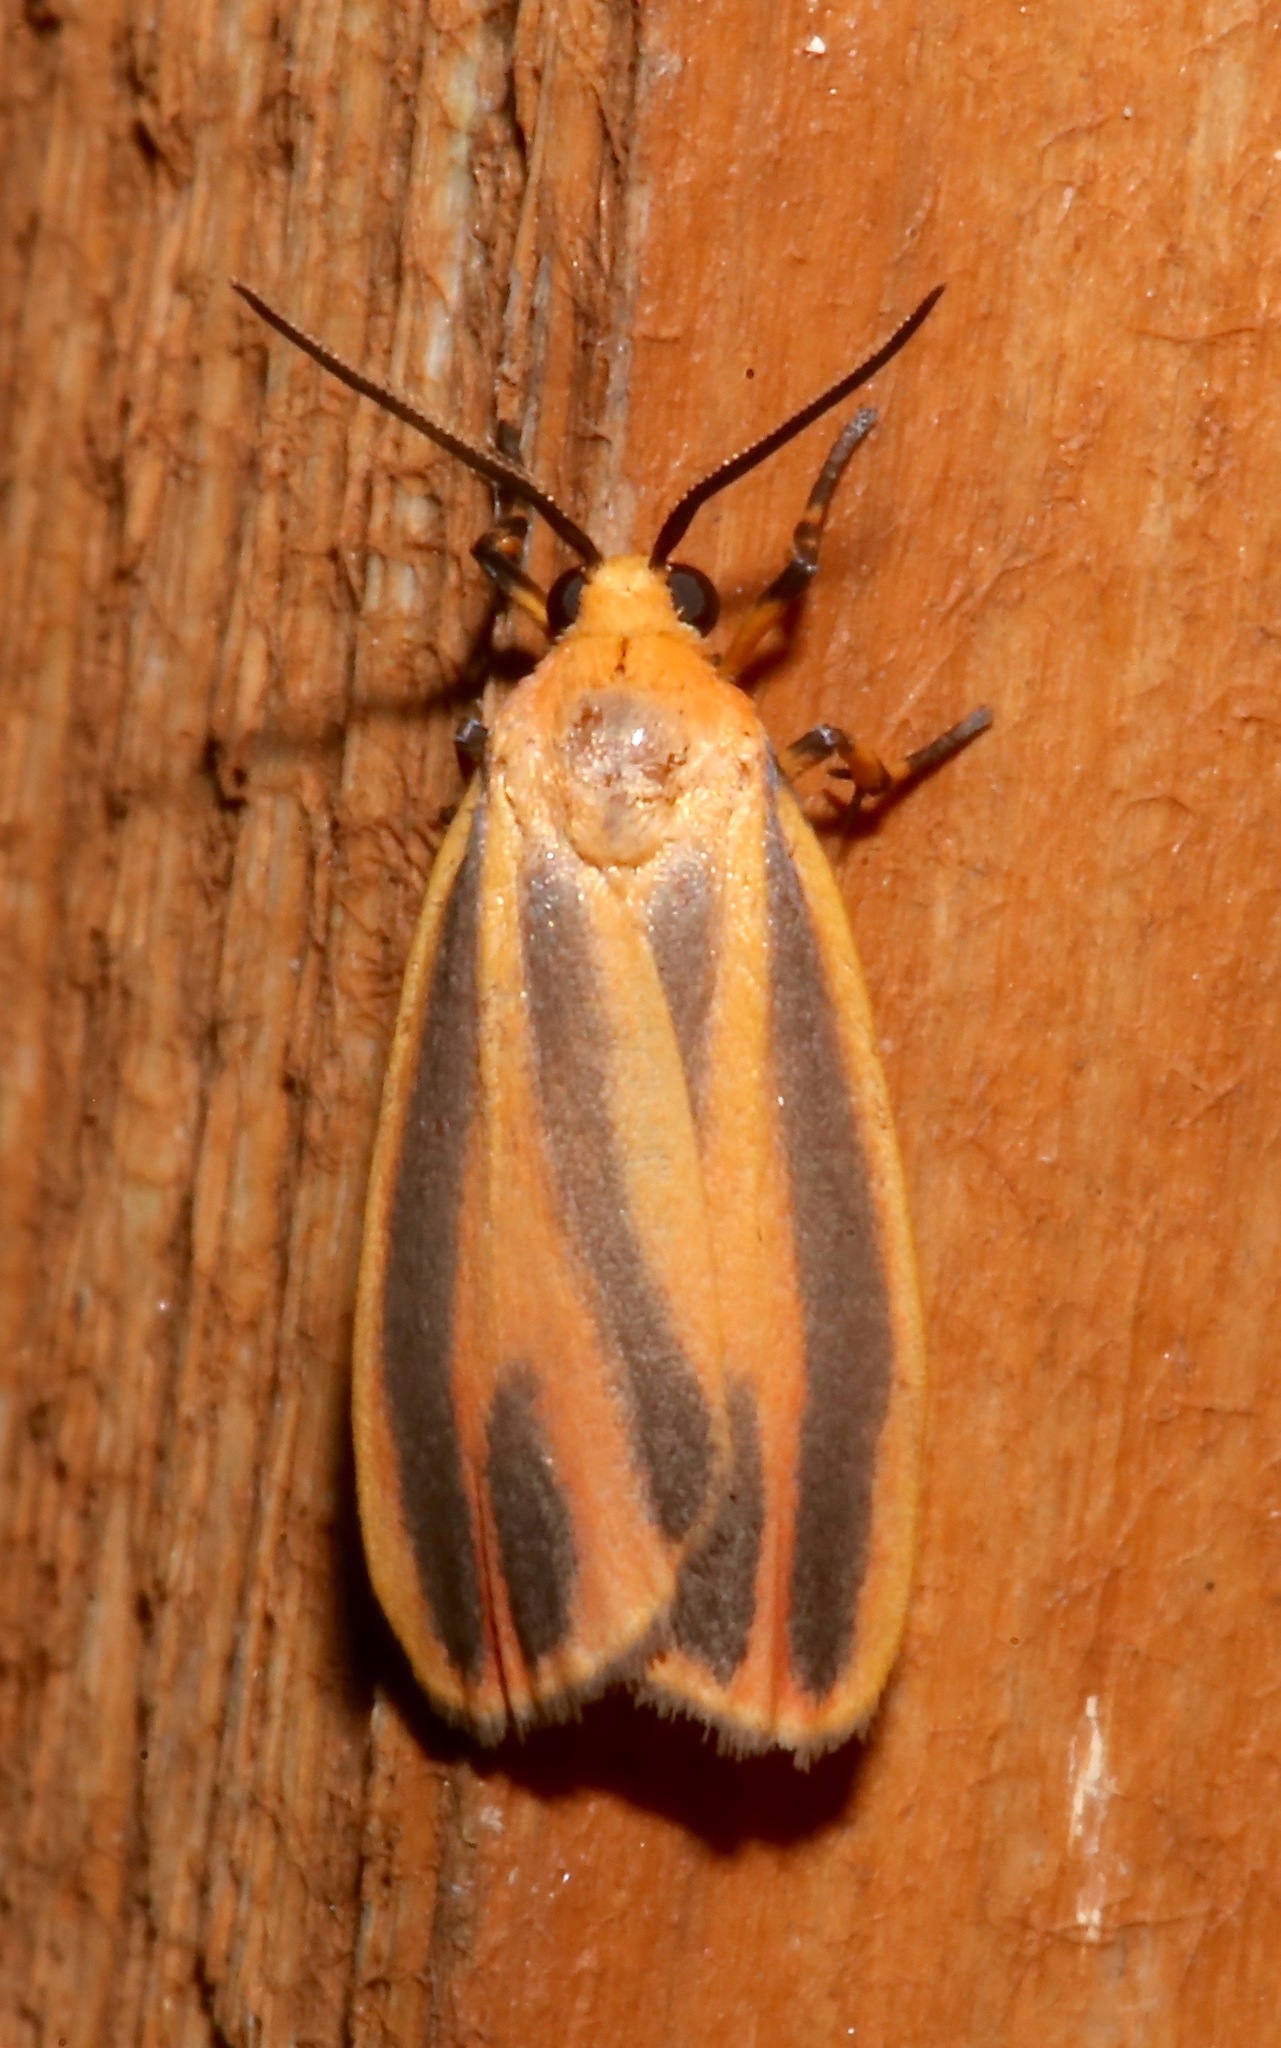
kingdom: Animalia
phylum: Arthropoda
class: Insecta
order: Lepidoptera
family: Erebidae
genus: Hypoprepia
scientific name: Hypoprepia fucosa
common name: Painted lichen moth
